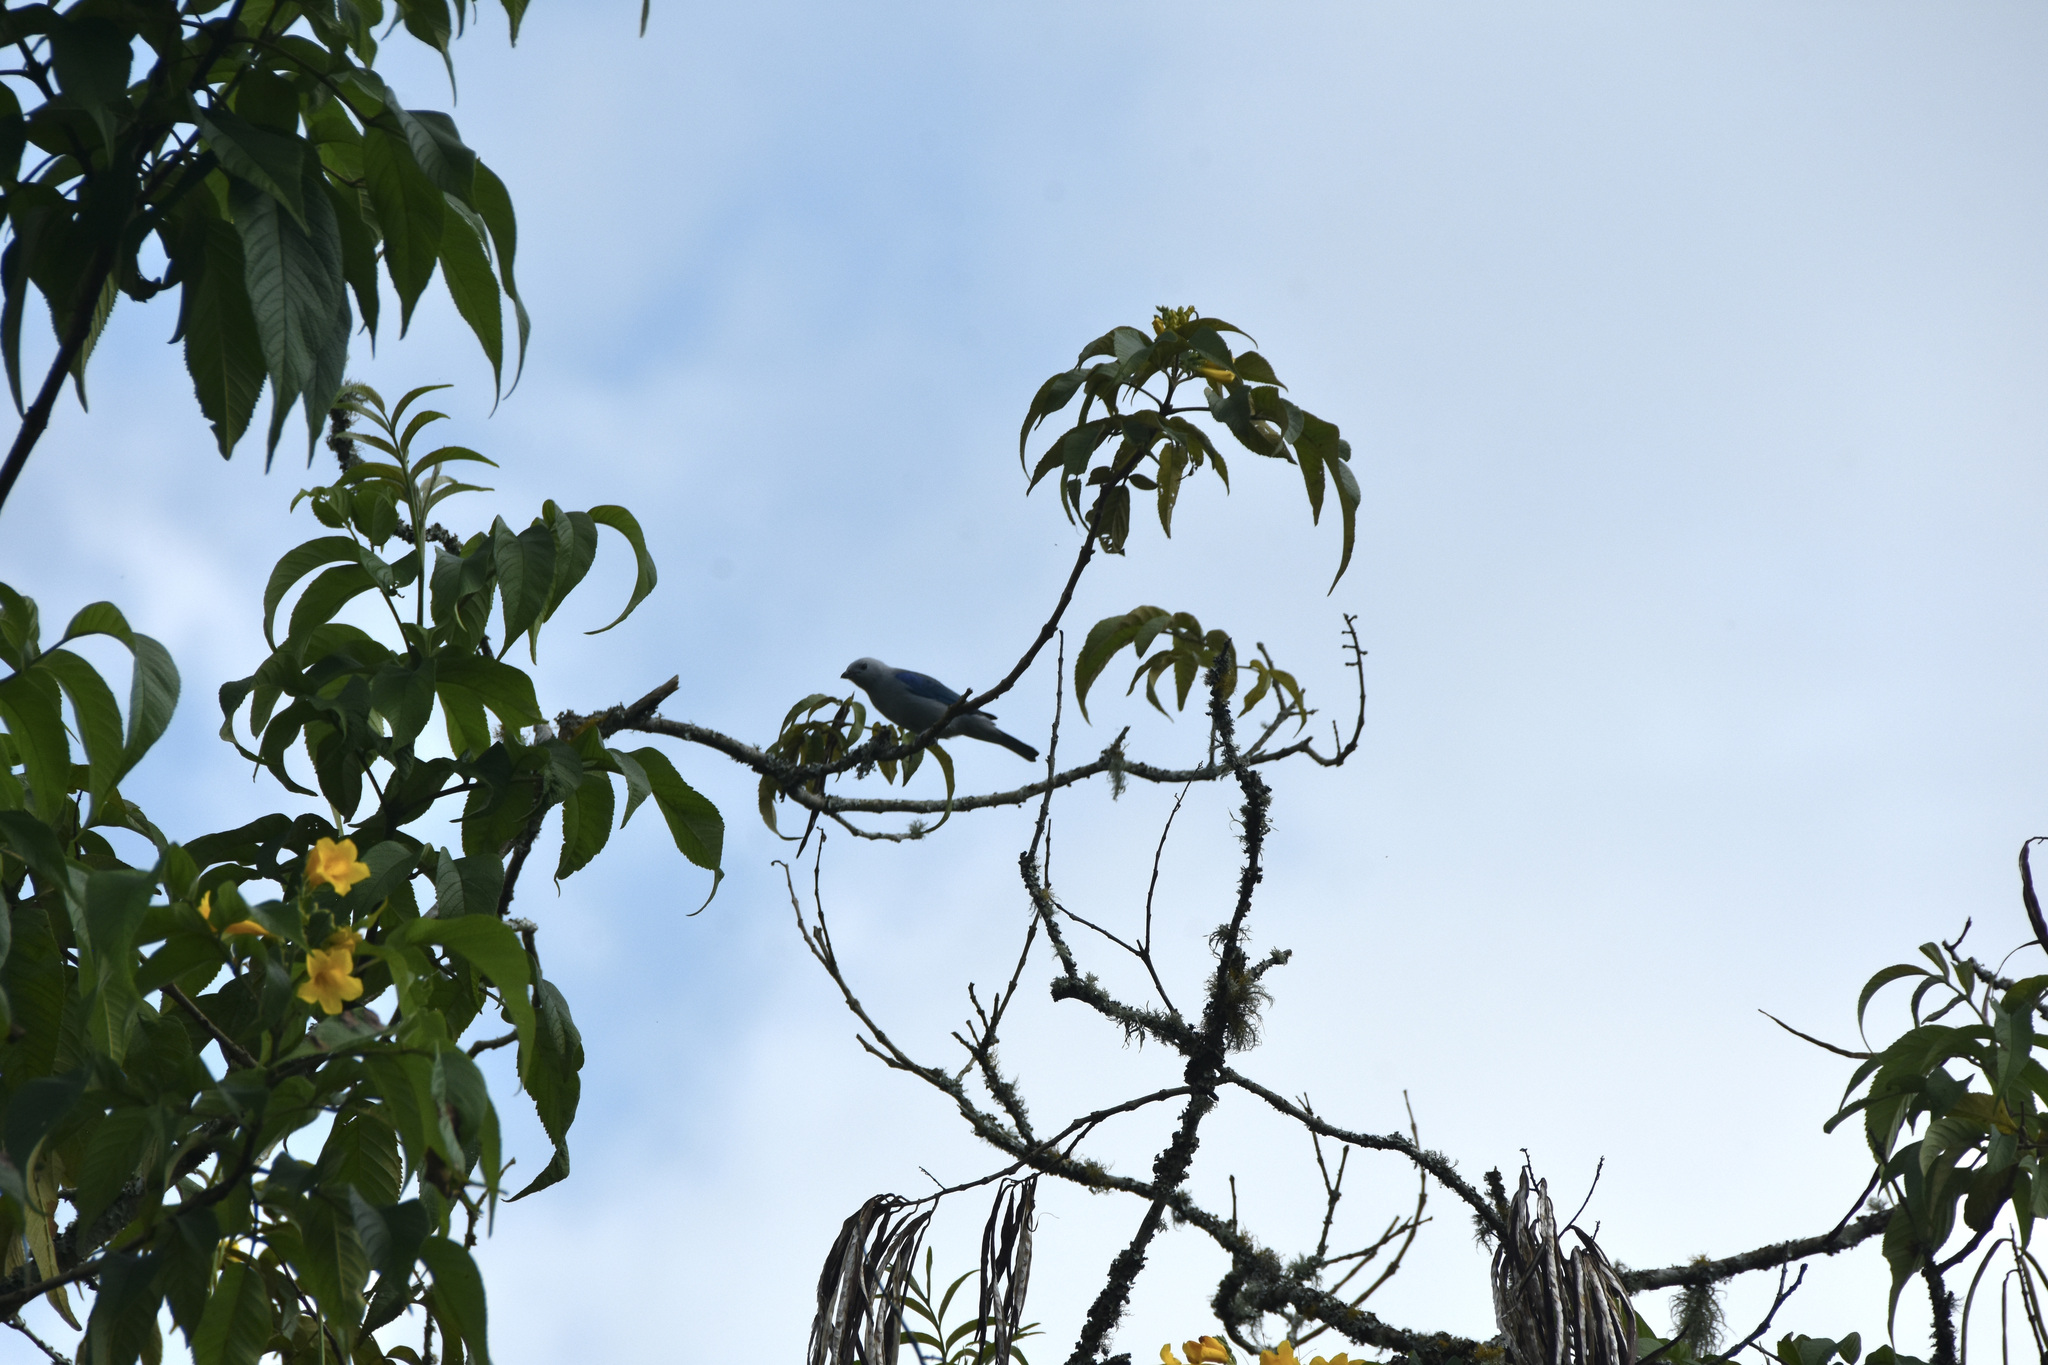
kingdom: Animalia
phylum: Chordata
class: Aves
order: Passeriformes
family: Thraupidae
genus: Thraupis
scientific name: Thraupis episcopus
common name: Blue-grey tanager
